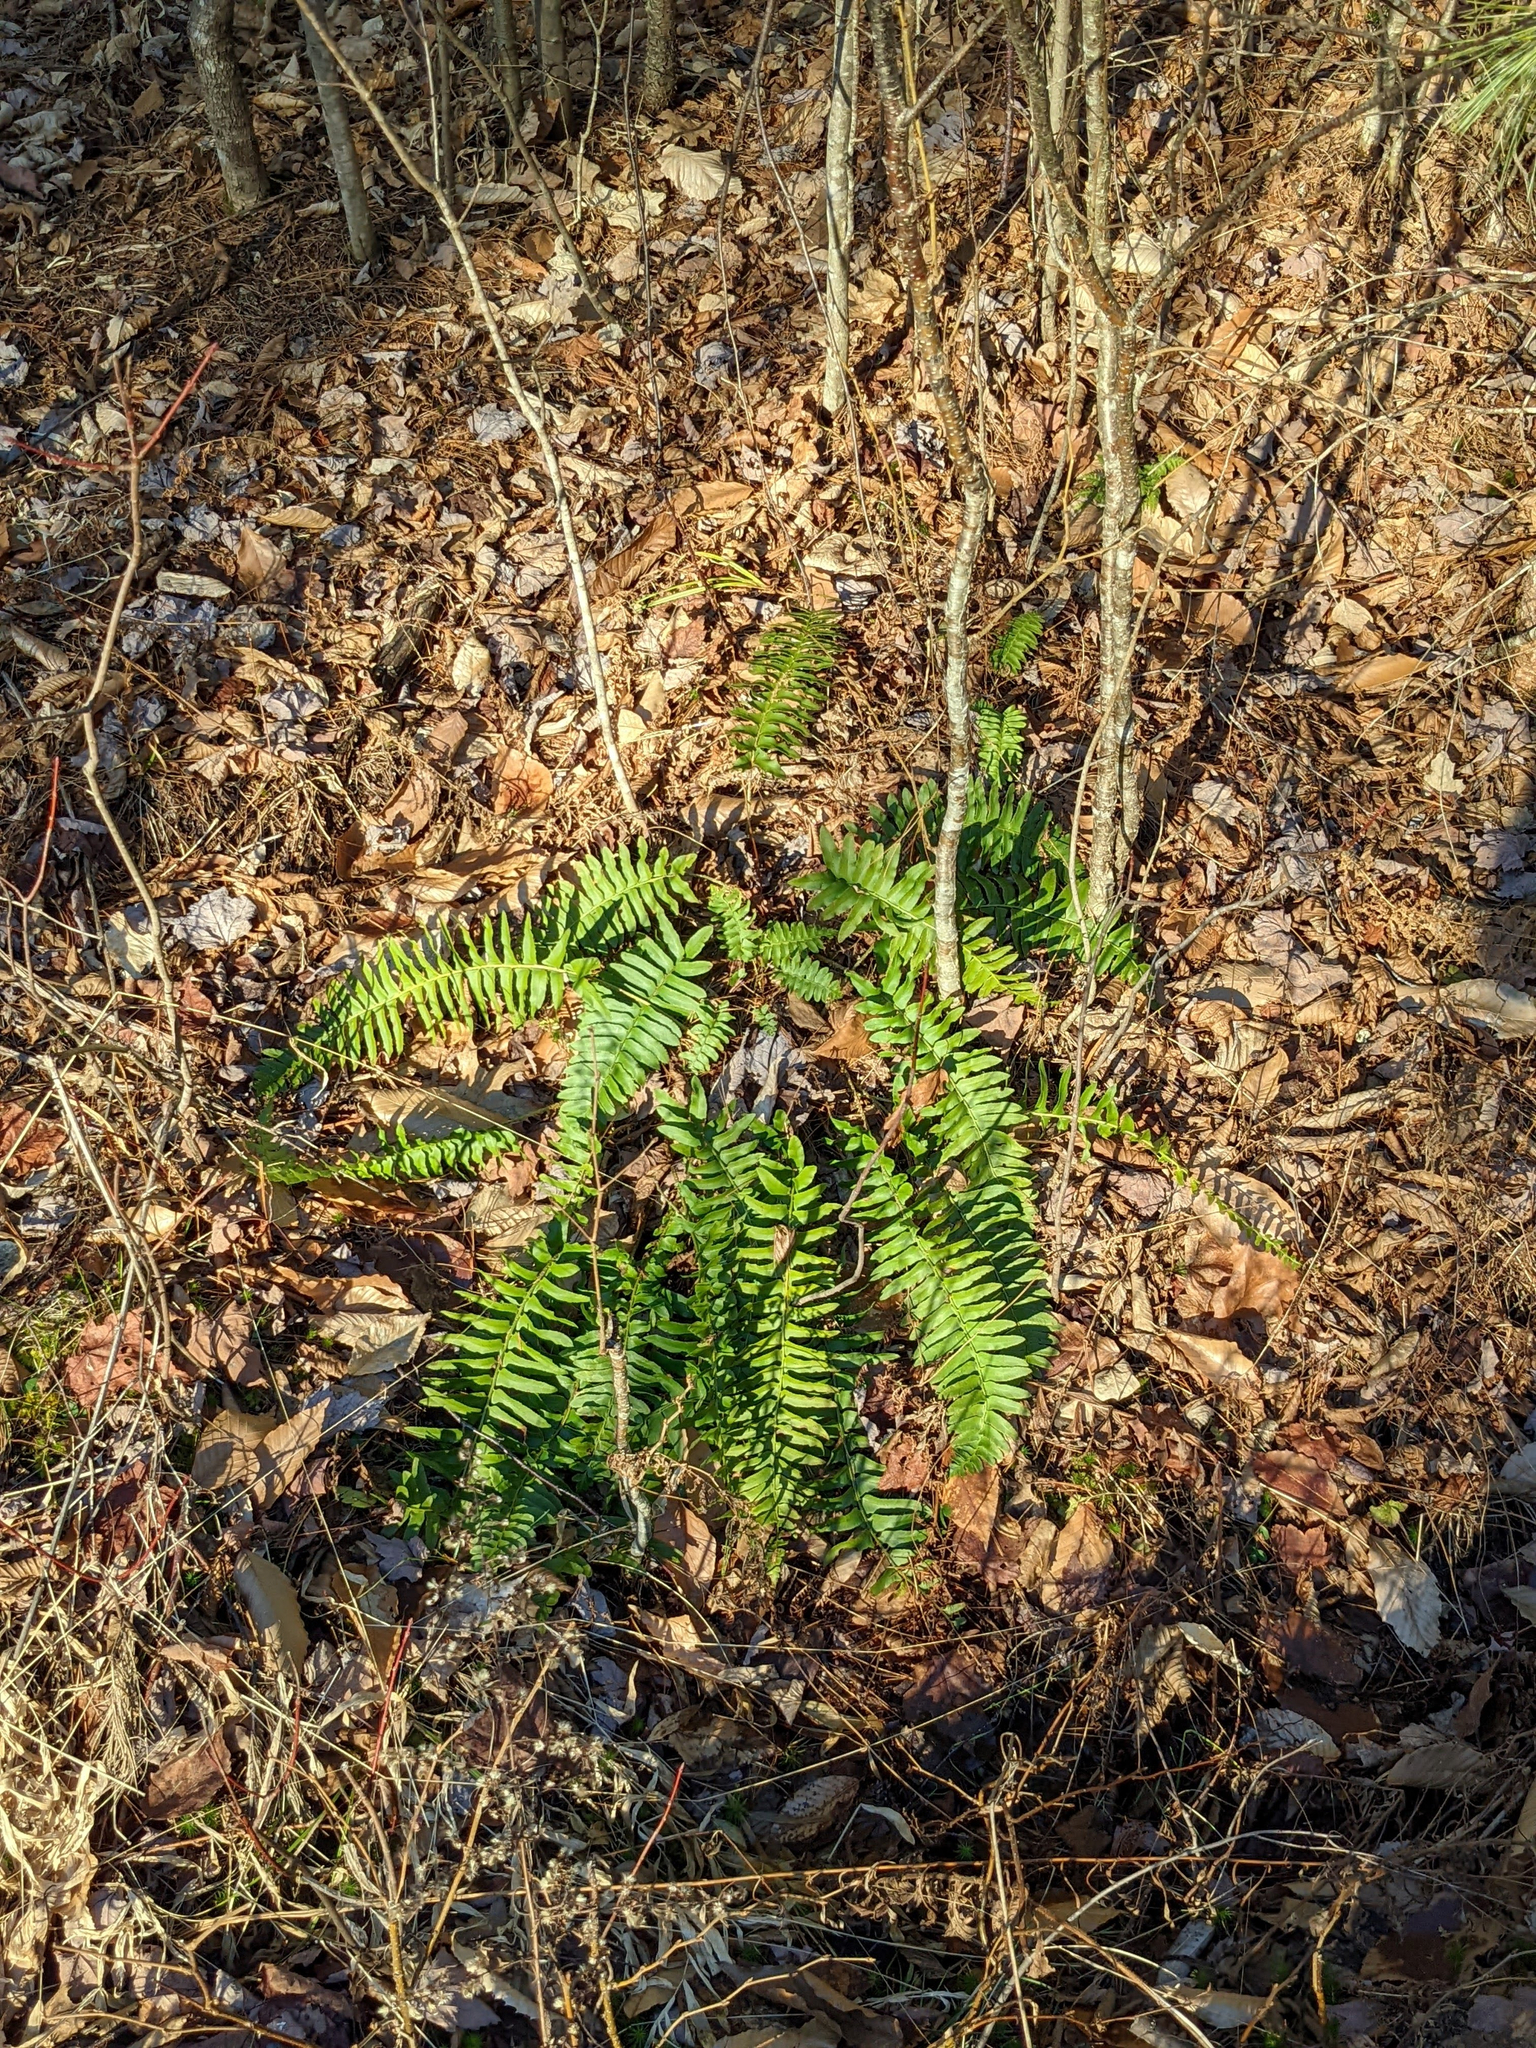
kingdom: Plantae
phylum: Tracheophyta
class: Polypodiopsida
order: Polypodiales
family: Dryopteridaceae
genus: Polystichum
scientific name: Polystichum acrostichoides
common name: Christmas fern
